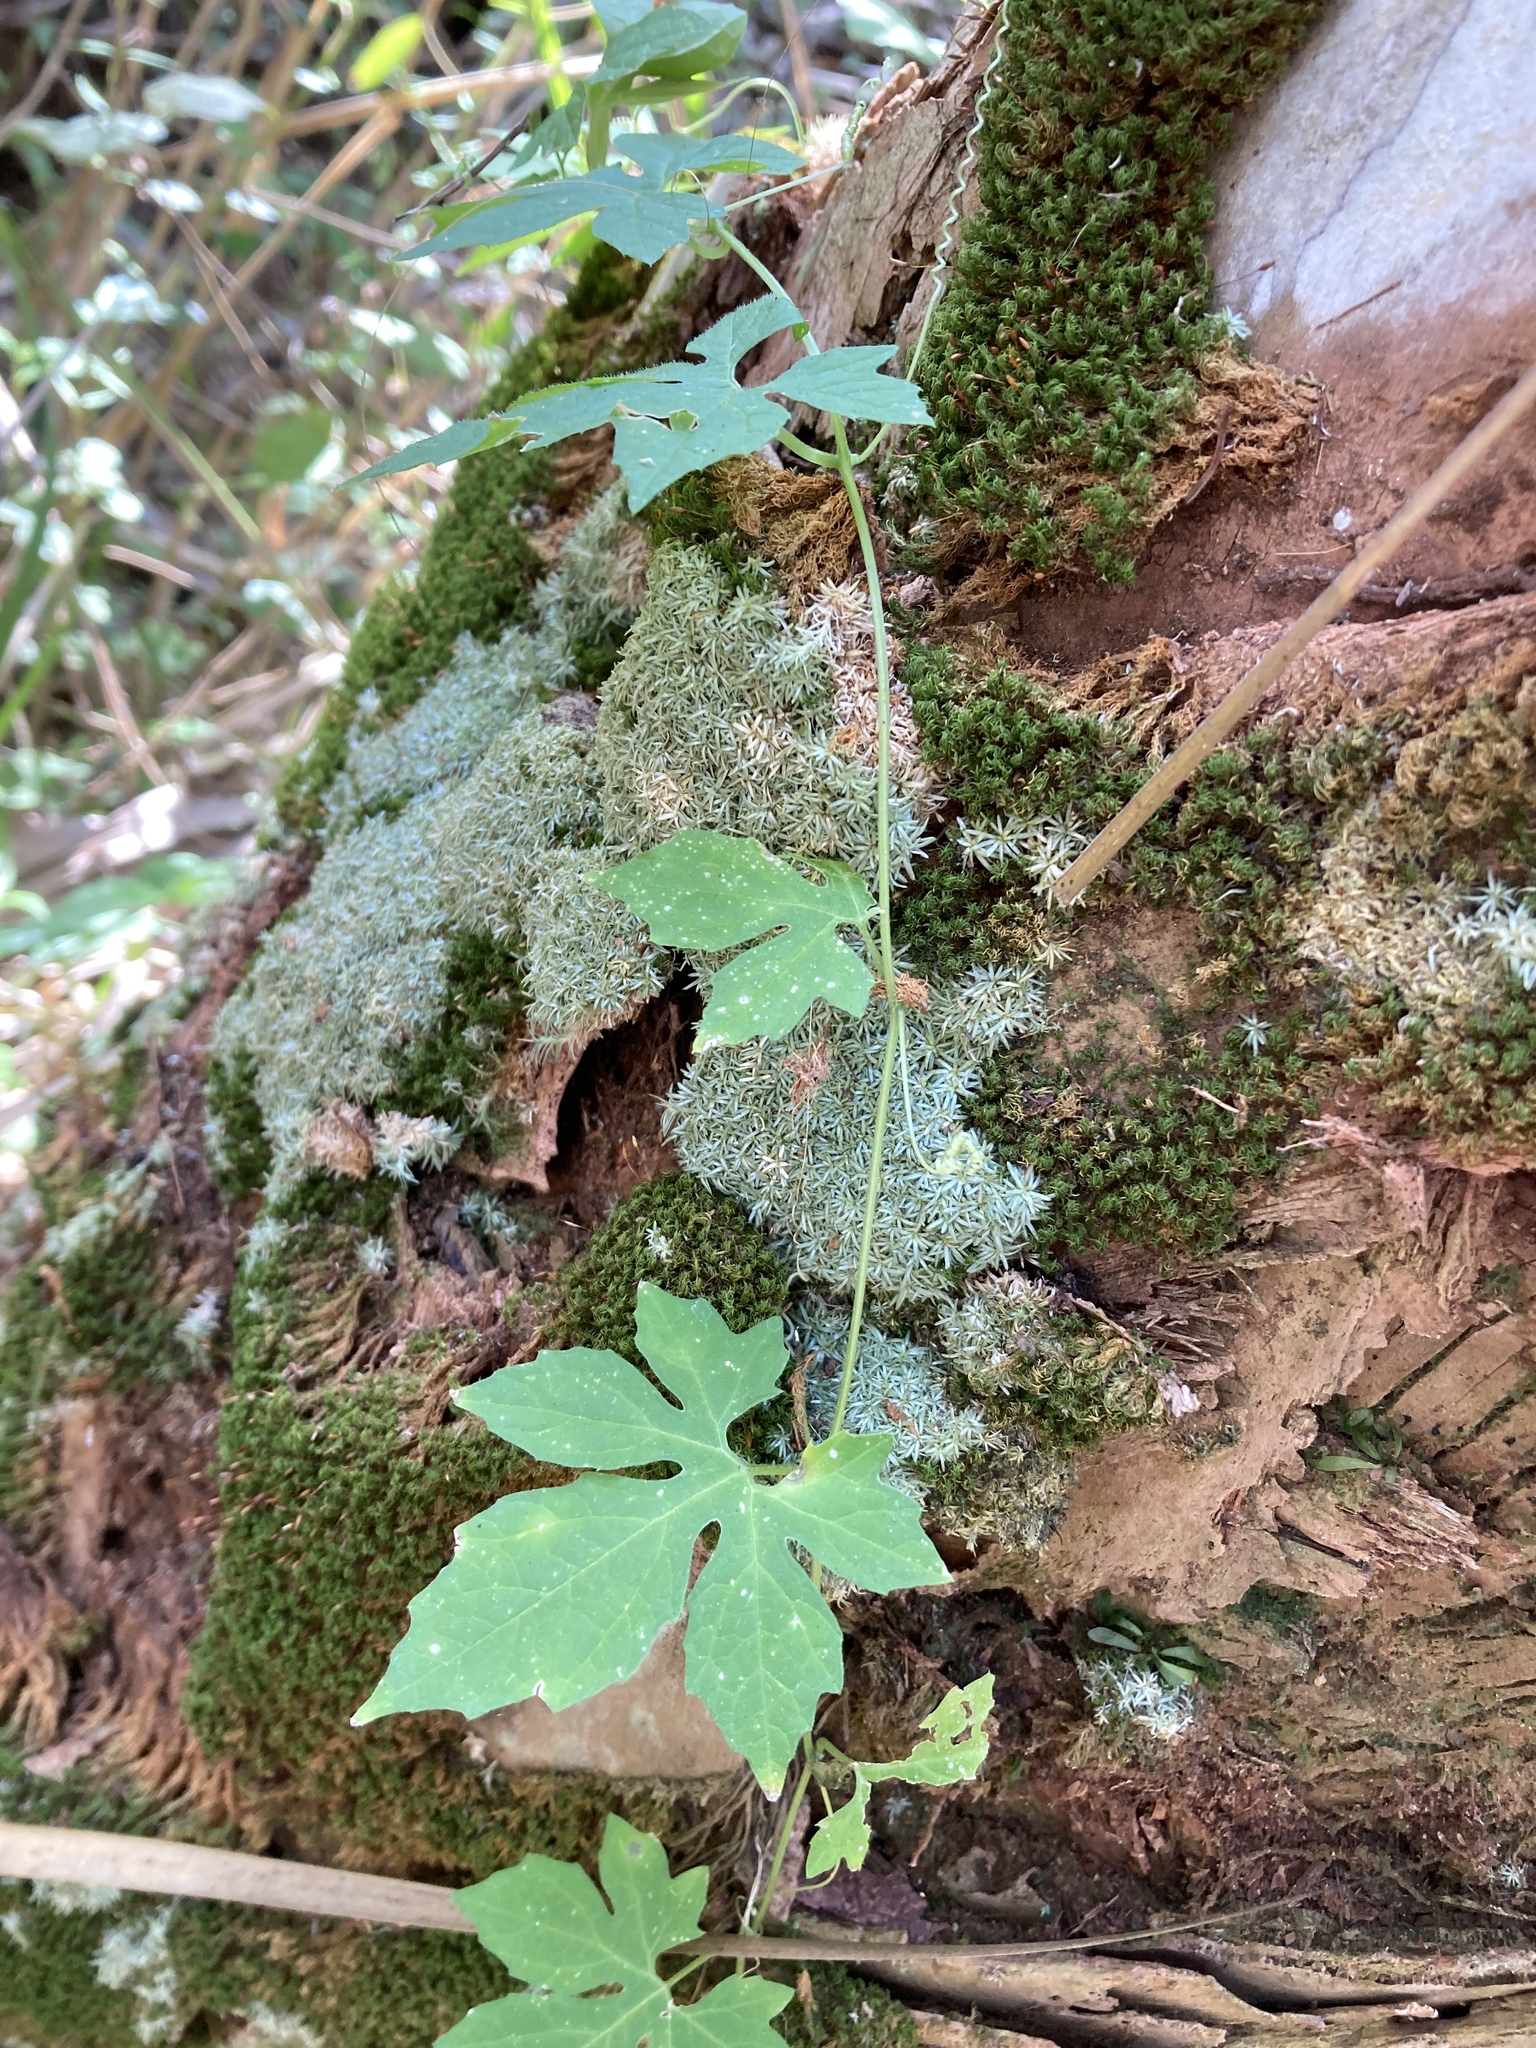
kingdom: Plantae
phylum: Tracheophyta
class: Magnoliopsida
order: Cucurbitales
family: Cucurbitaceae
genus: Momordica
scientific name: Momordica charantia
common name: Balsampear
